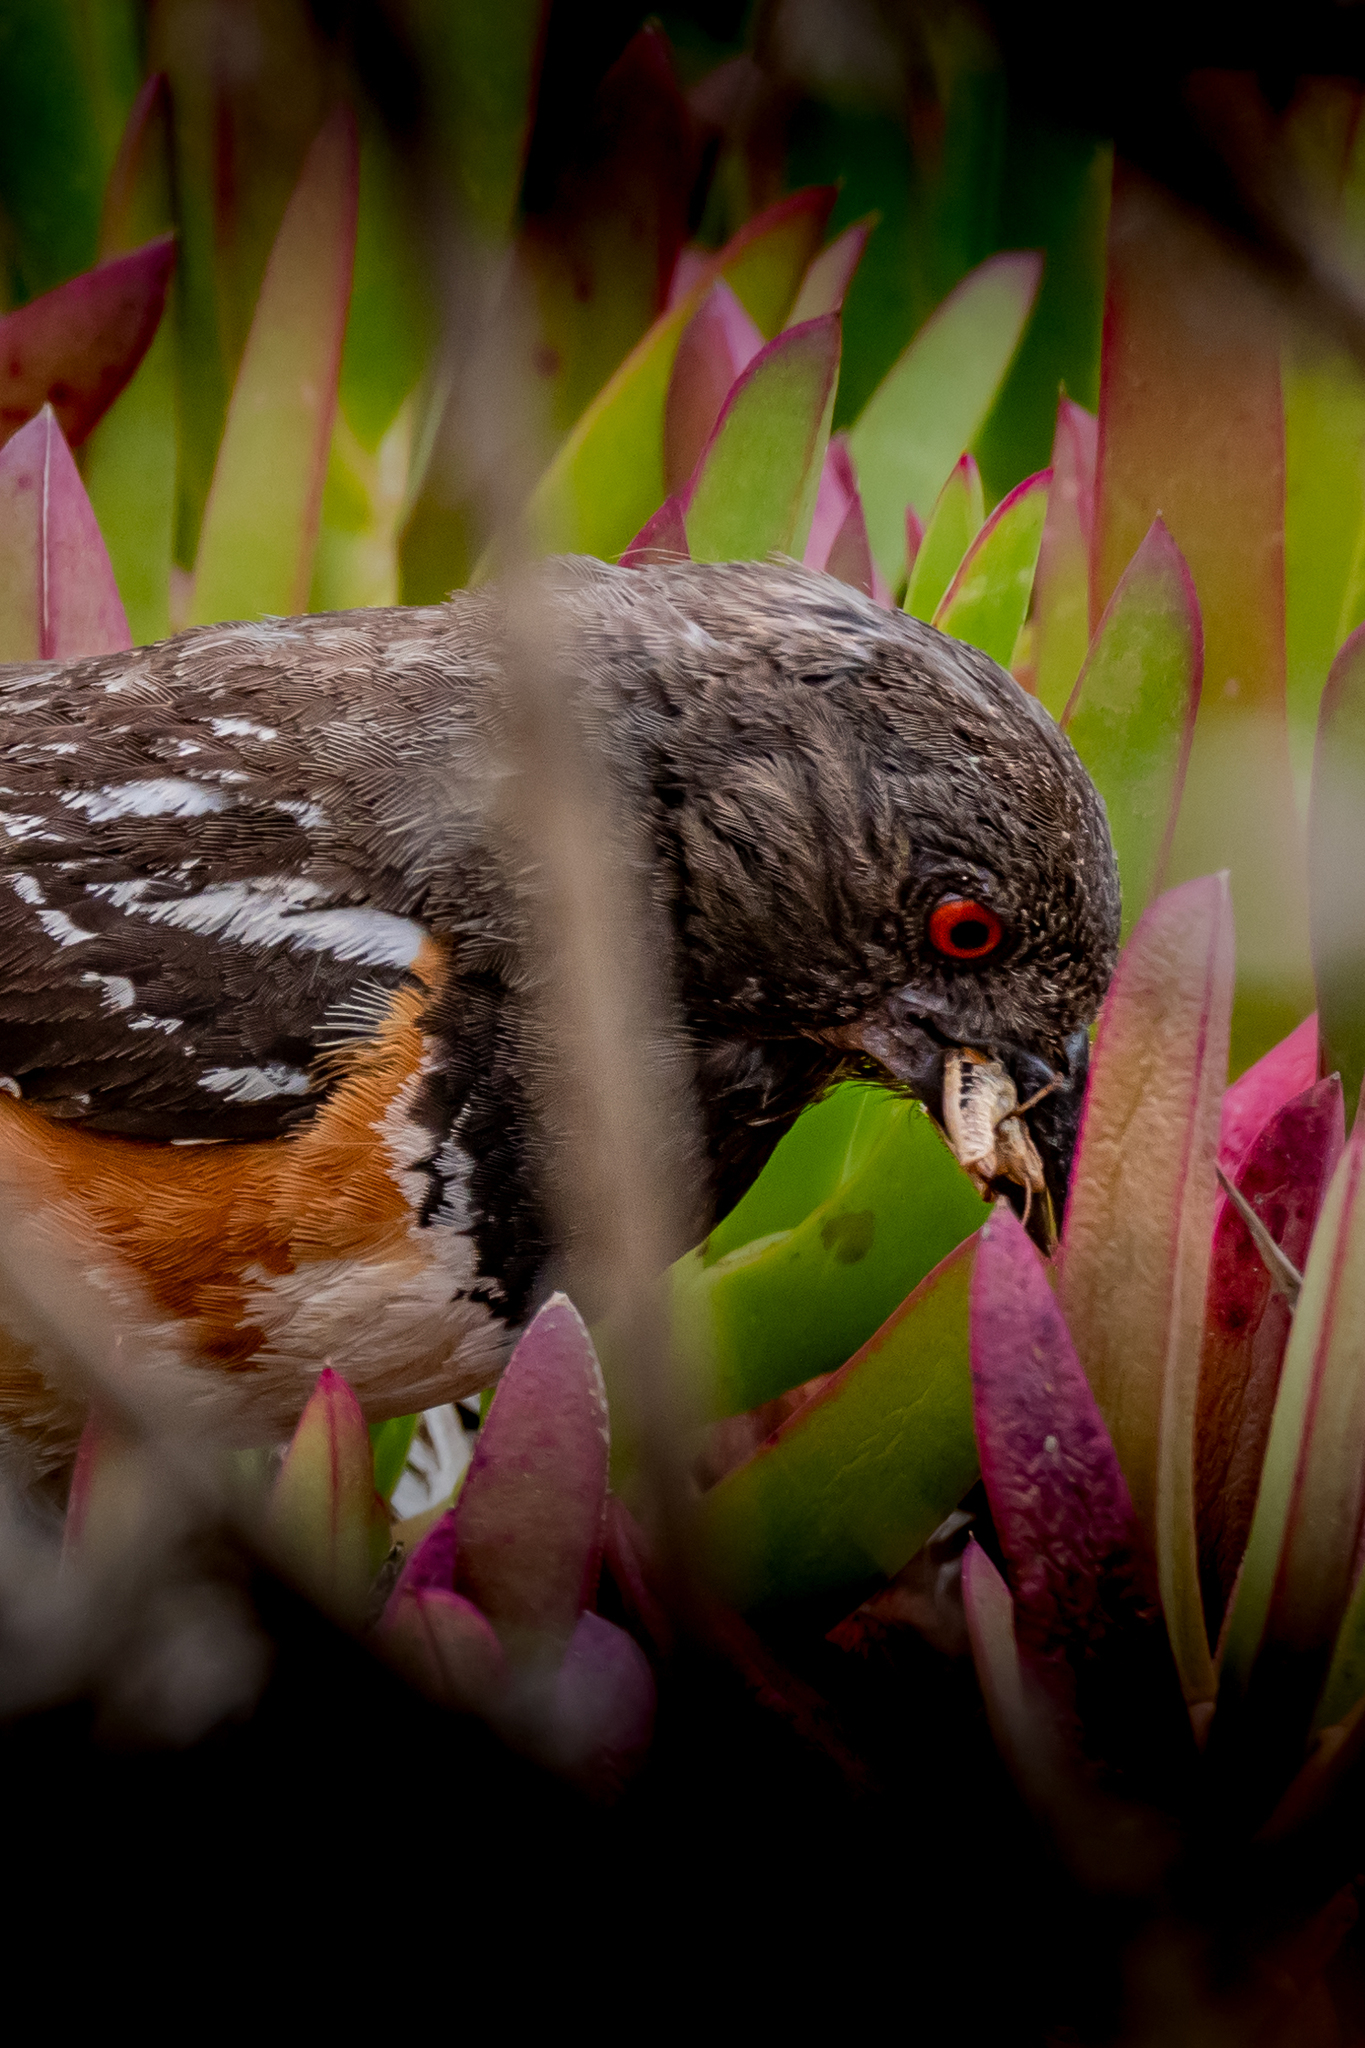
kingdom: Animalia
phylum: Chordata
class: Aves
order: Passeriformes
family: Passerellidae
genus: Pipilo
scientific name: Pipilo maculatus
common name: Spotted towhee
